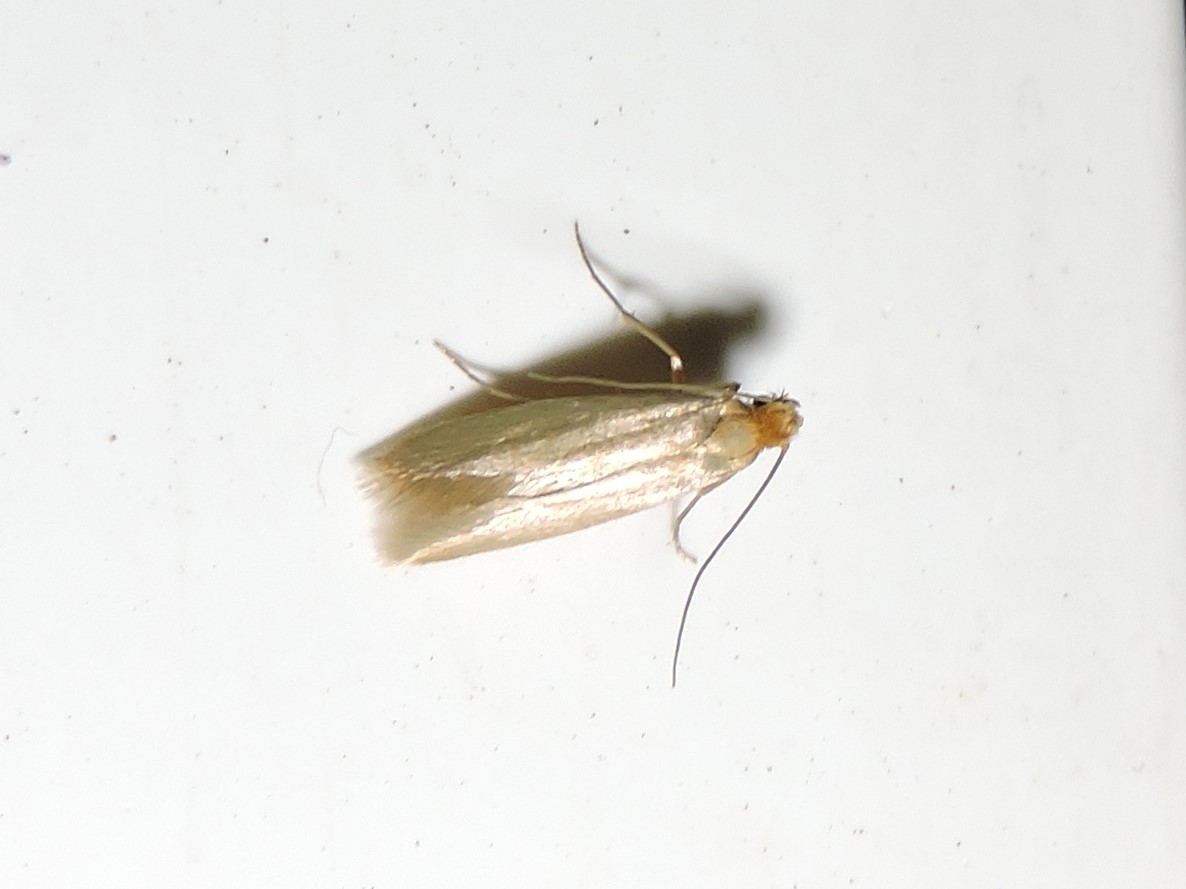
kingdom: Animalia
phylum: Arthropoda
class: Insecta
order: Lepidoptera
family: Tineidae
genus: Tineola
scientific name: Tineola bisselliella
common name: Webbing clothes moth
